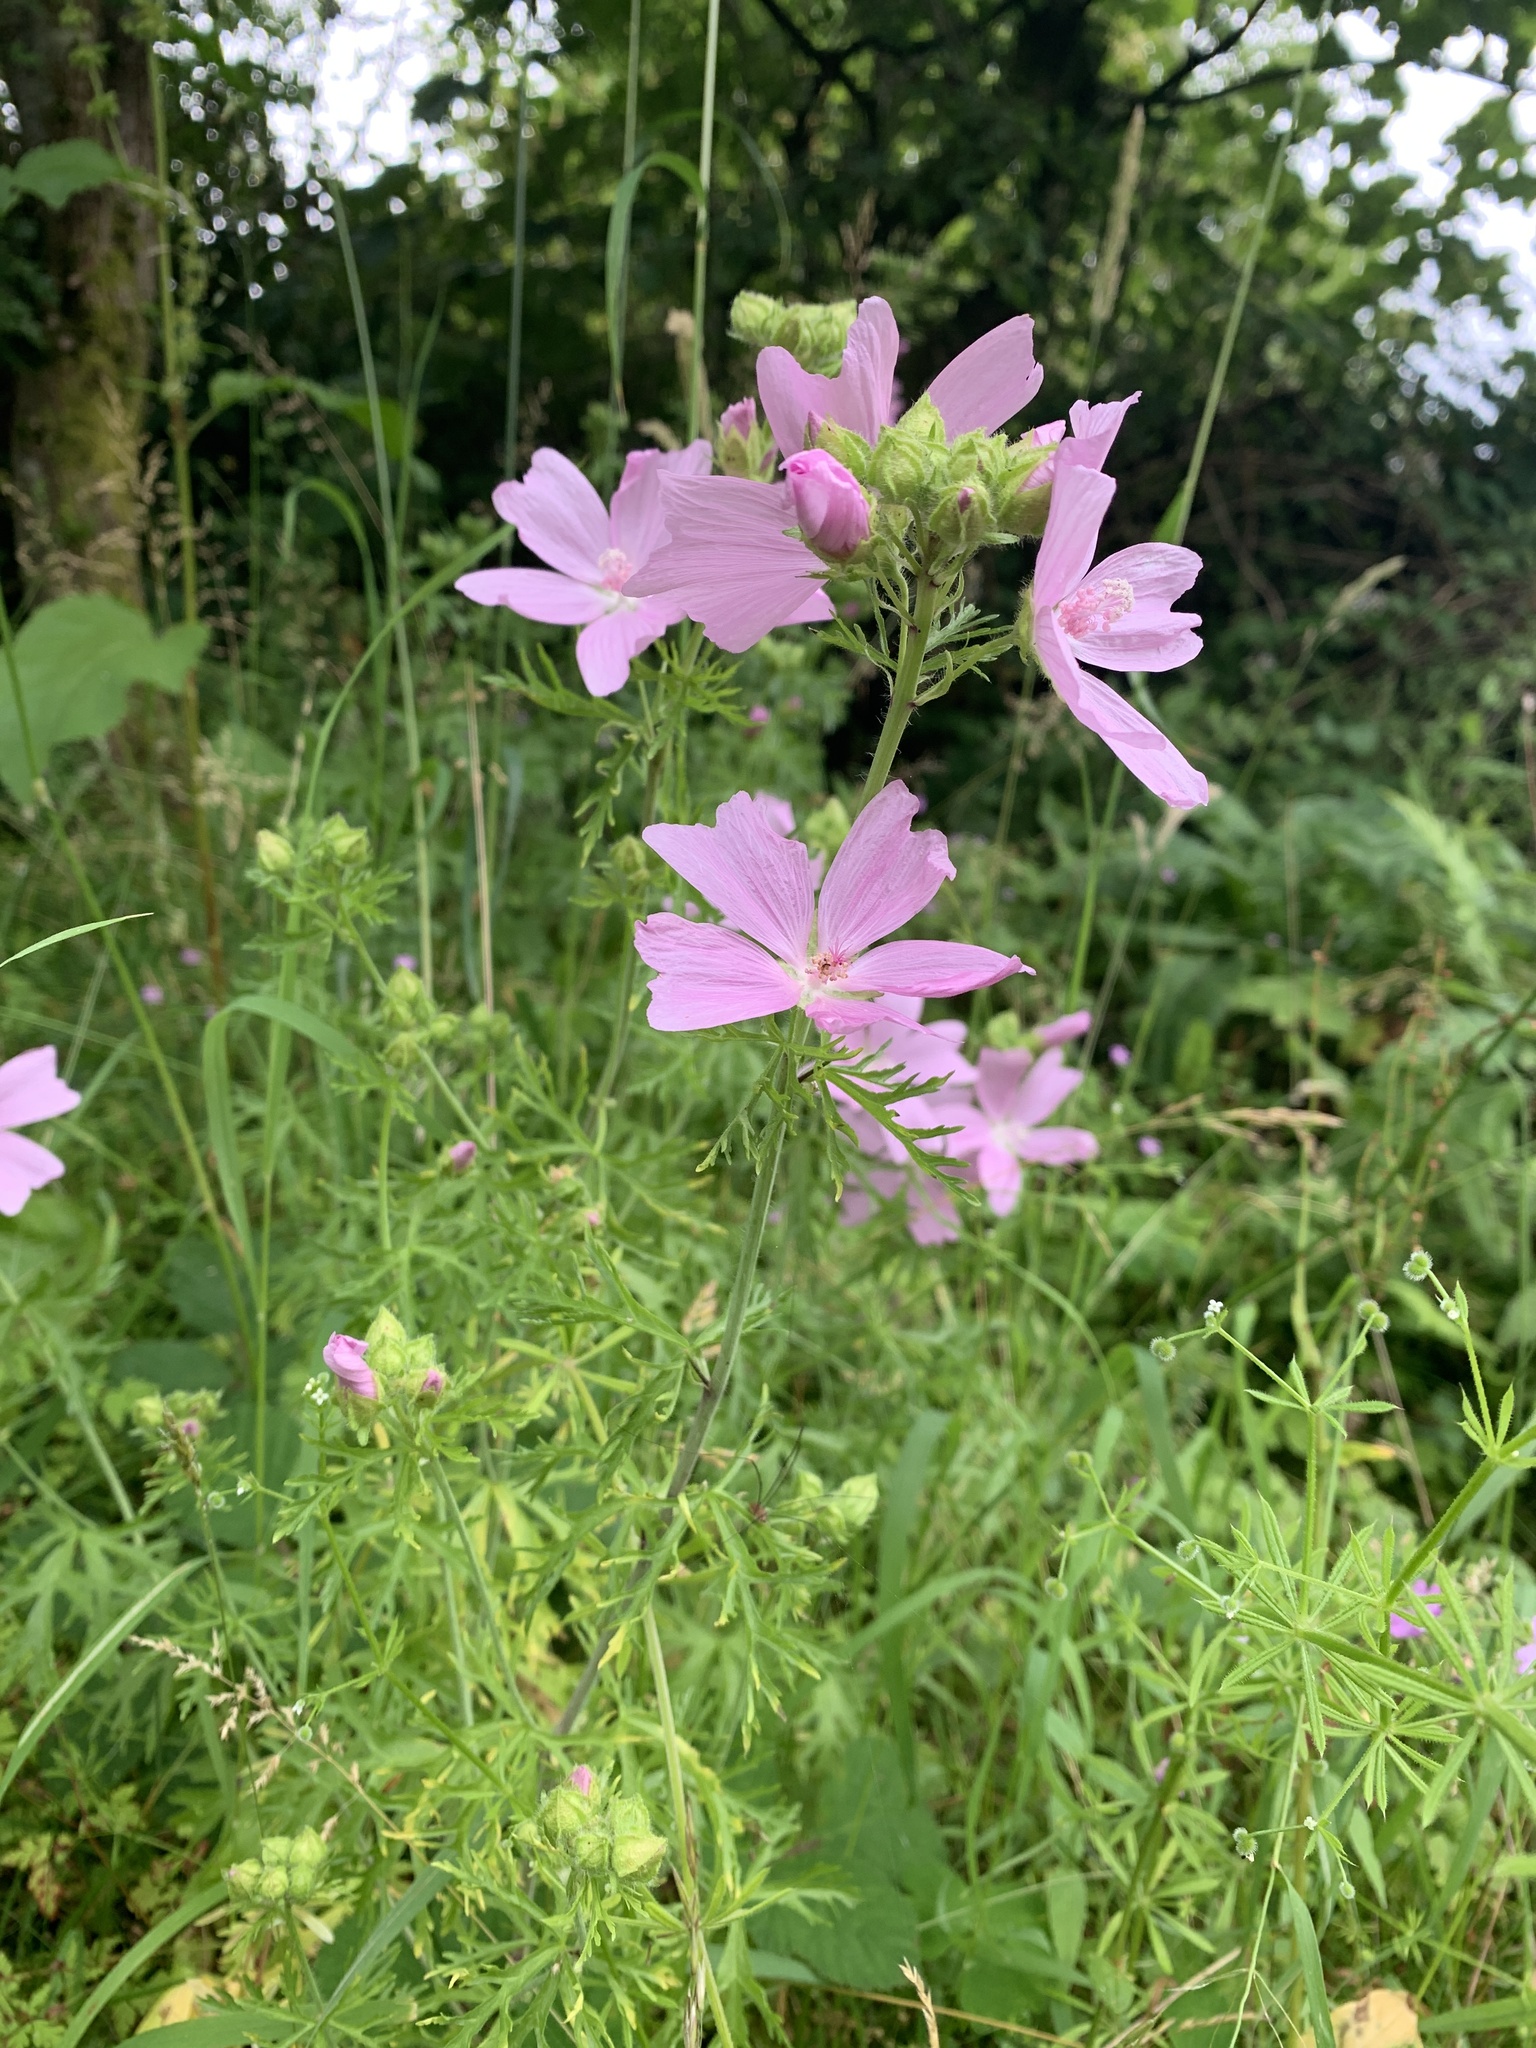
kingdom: Plantae
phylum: Tracheophyta
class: Magnoliopsida
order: Malvales
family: Malvaceae
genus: Malva
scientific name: Malva moschata
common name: Musk mallow
